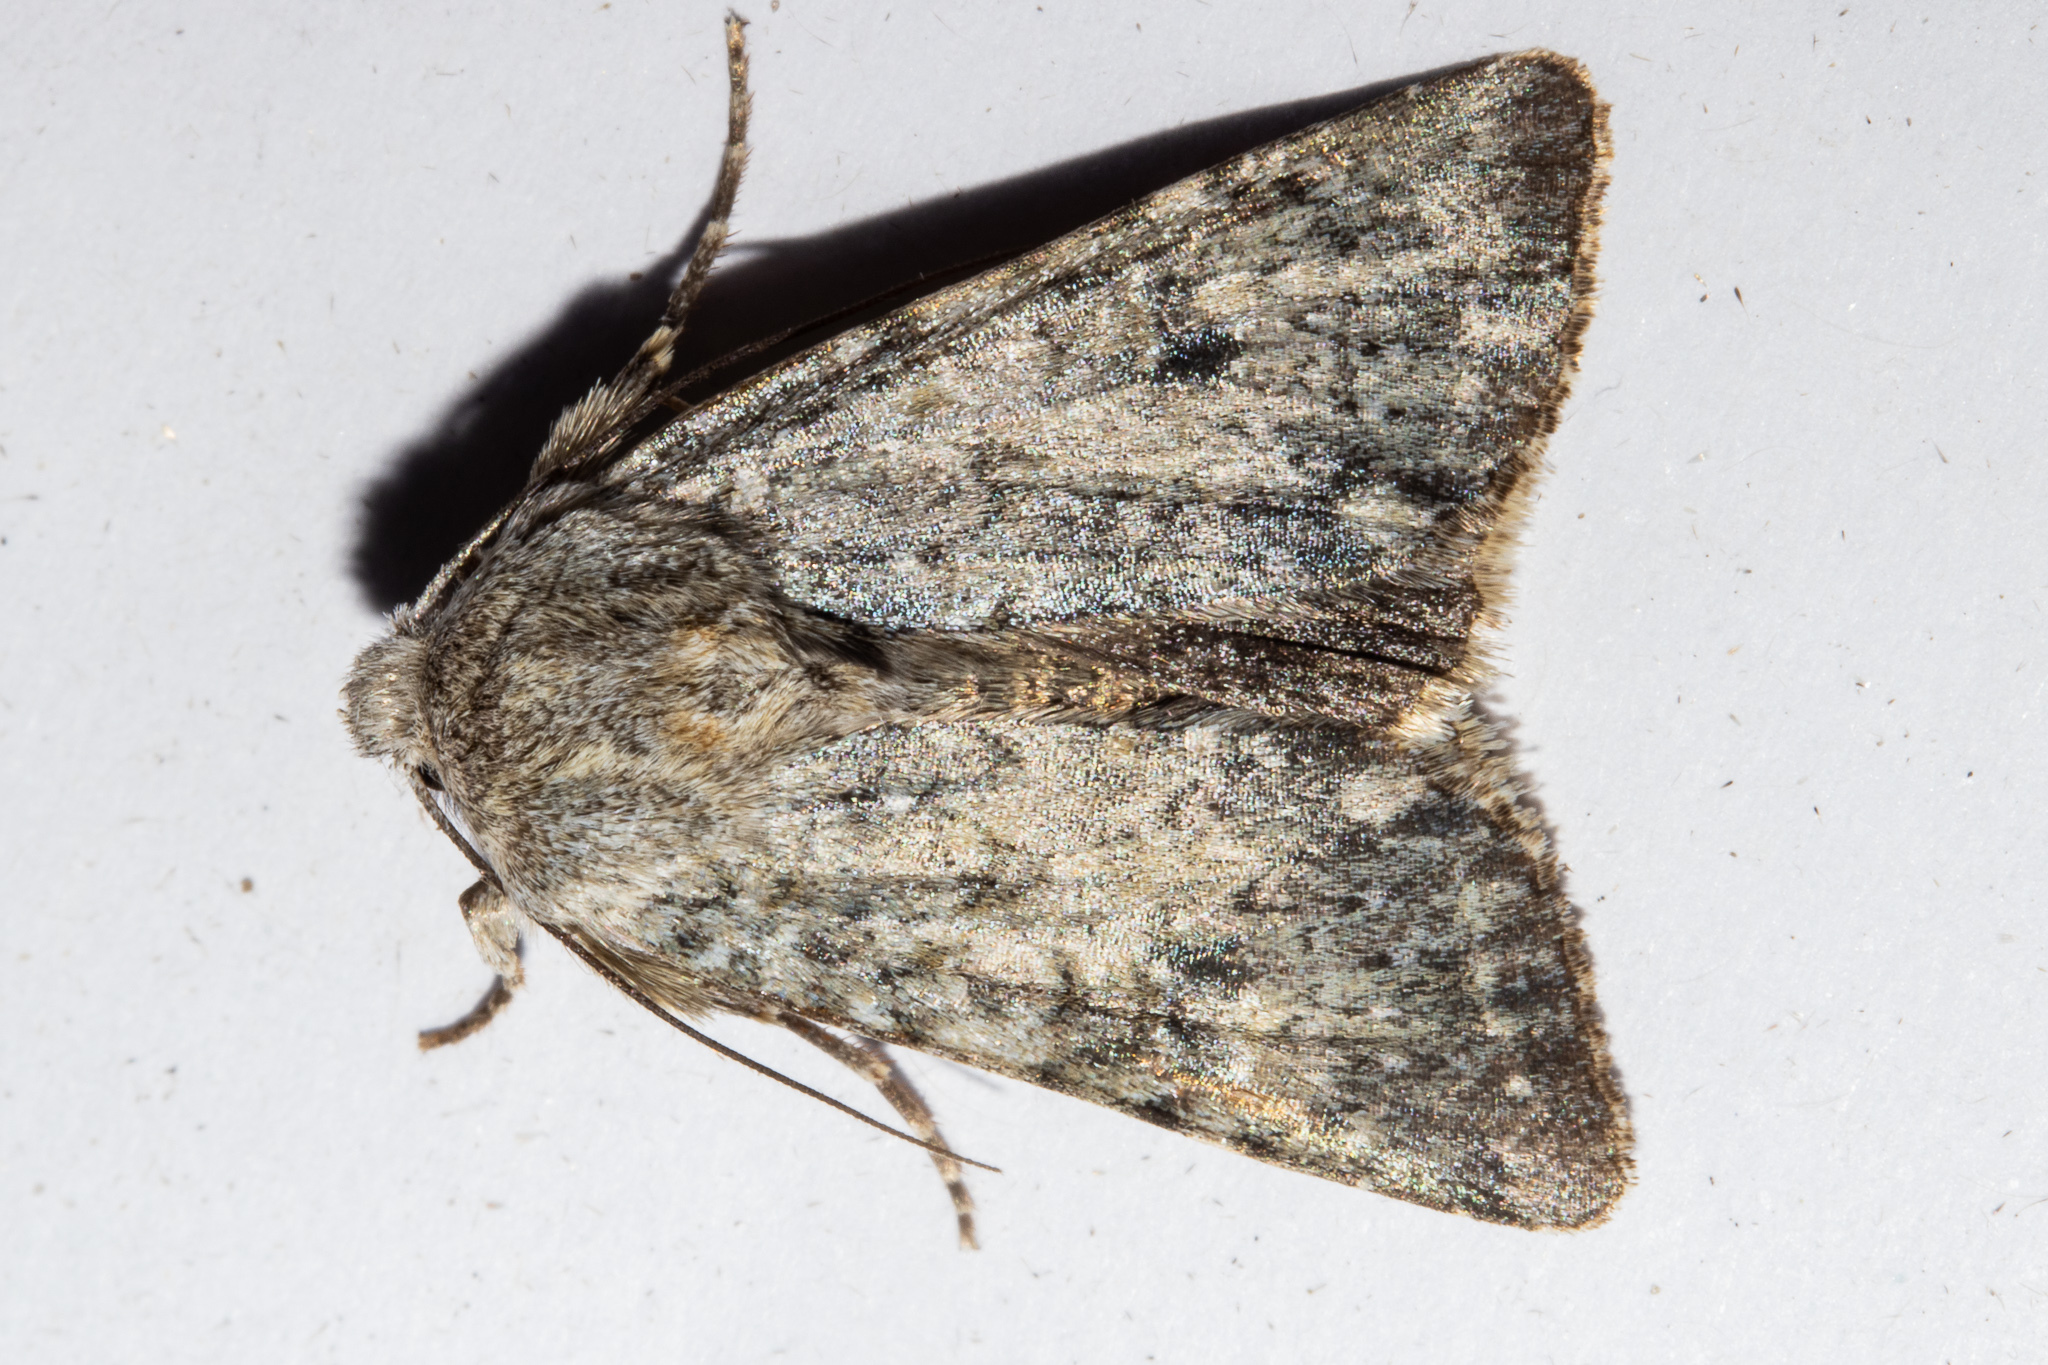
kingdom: Animalia
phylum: Arthropoda
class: Insecta
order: Lepidoptera
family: Noctuidae
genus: Ichneutica
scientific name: Ichneutica cuneata
